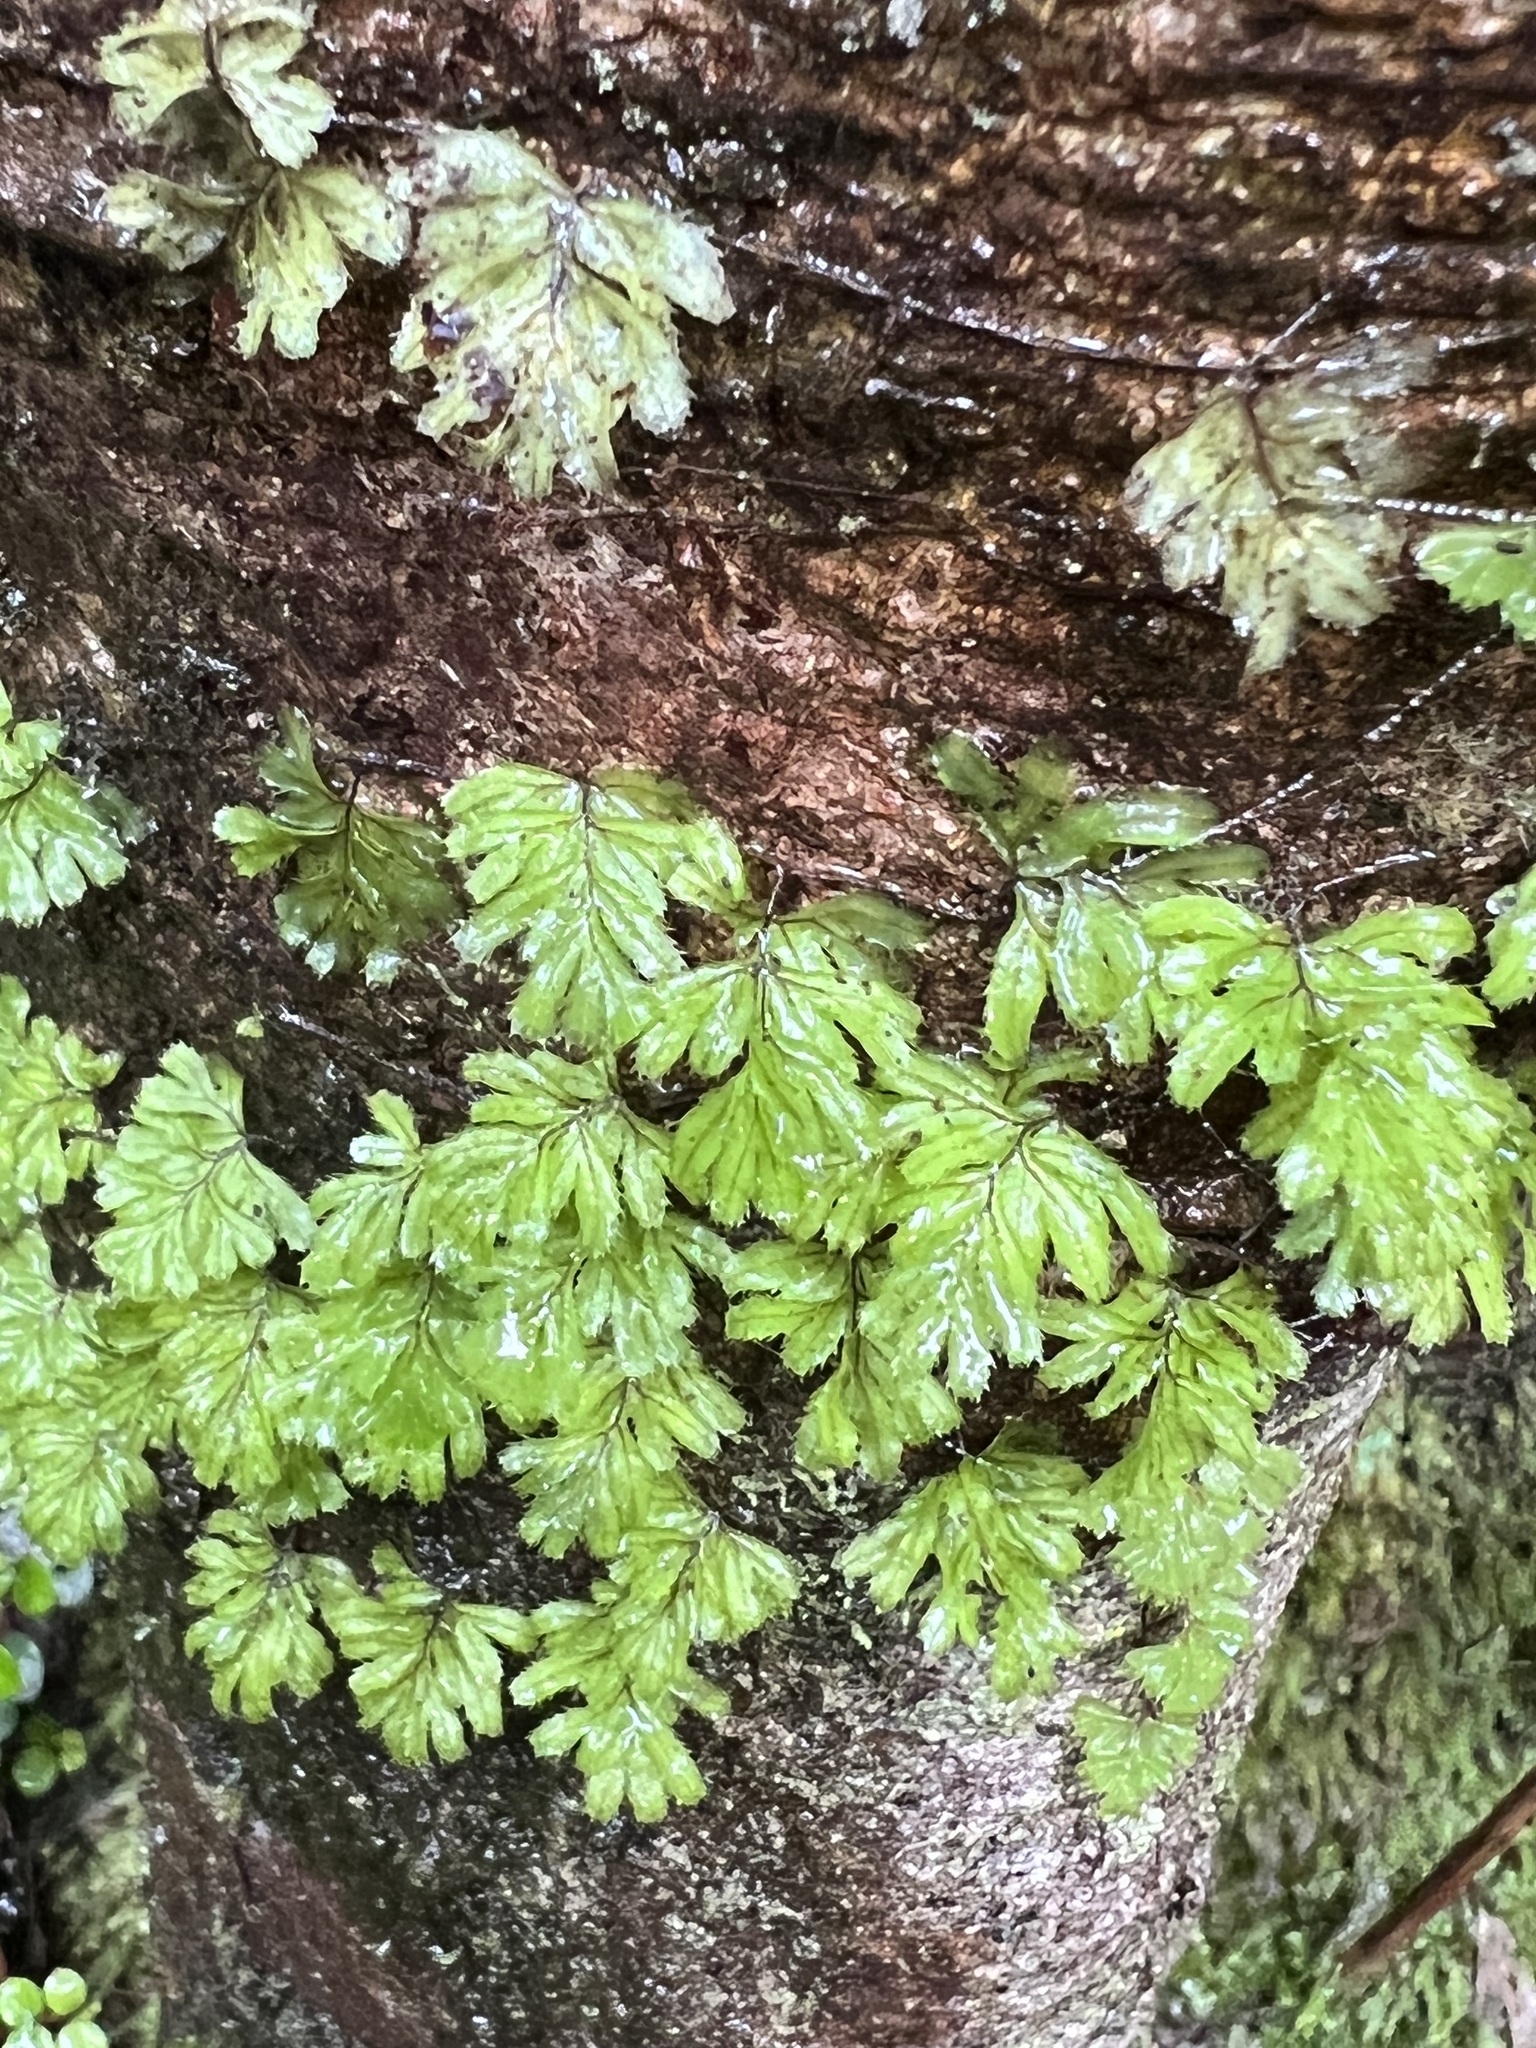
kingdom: Plantae
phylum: Tracheophyta
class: Polypodiopsida
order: Hymenophyllales
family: Hymenophyllaceae
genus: Hymenophyllum
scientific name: Hymenophyllum revolutum
